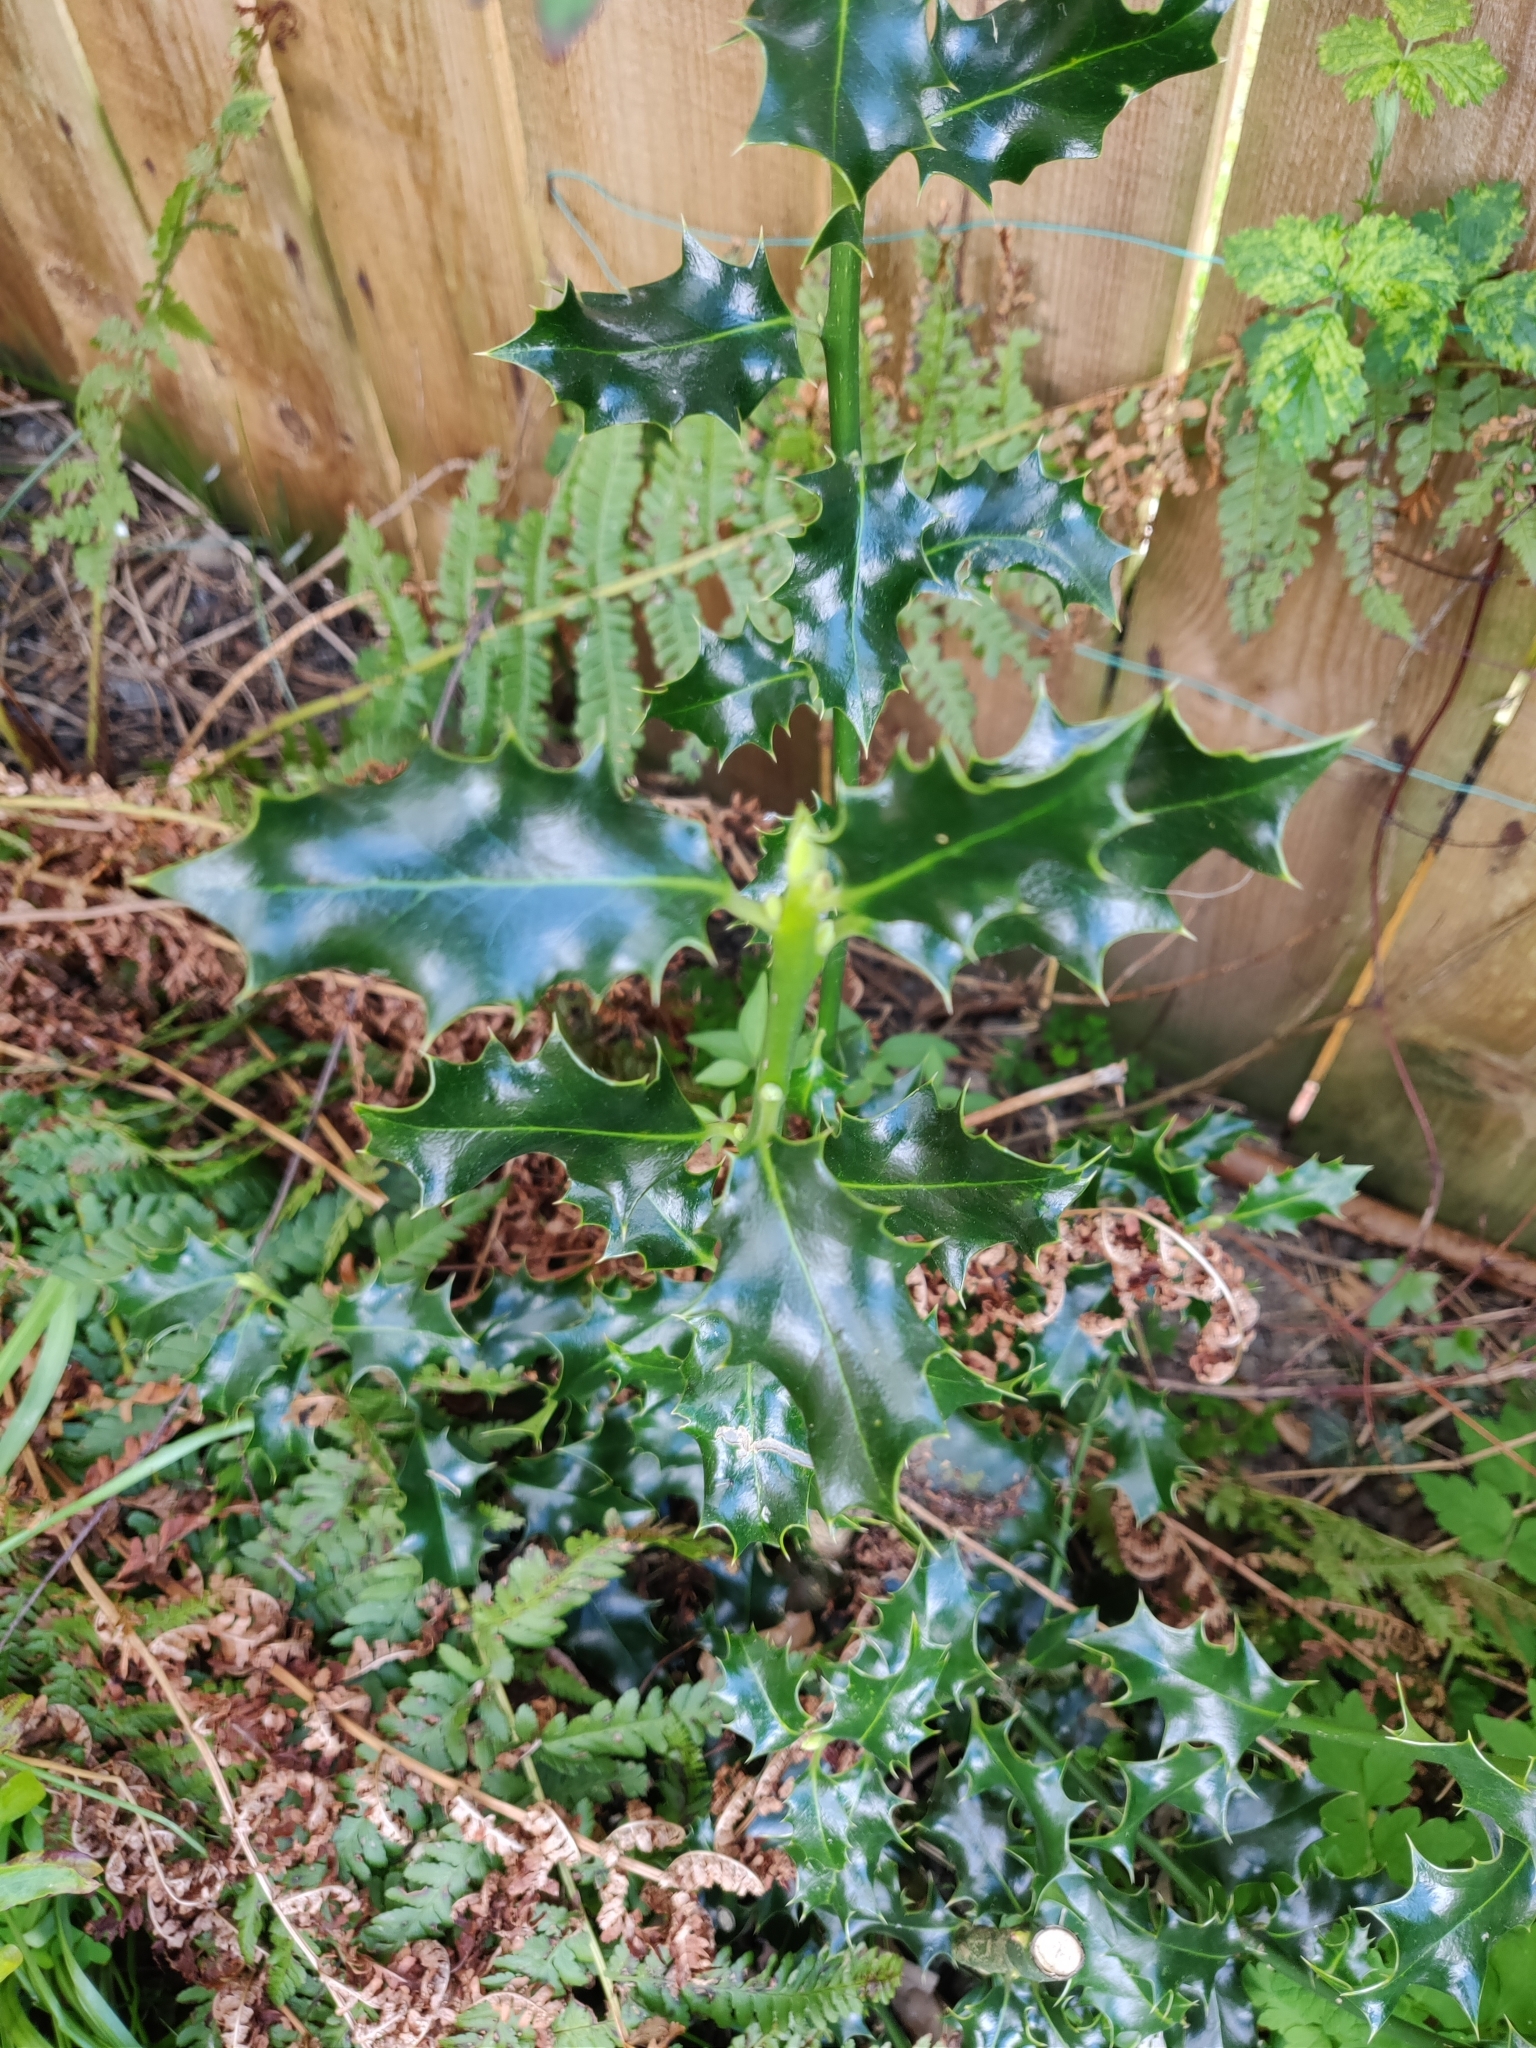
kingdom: Plantae
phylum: Tracheophyta
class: Magnoliopsida
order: Aquifoliales
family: Aquifoliaceae
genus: Ilex
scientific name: Ilex aquifolium
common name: English holly
